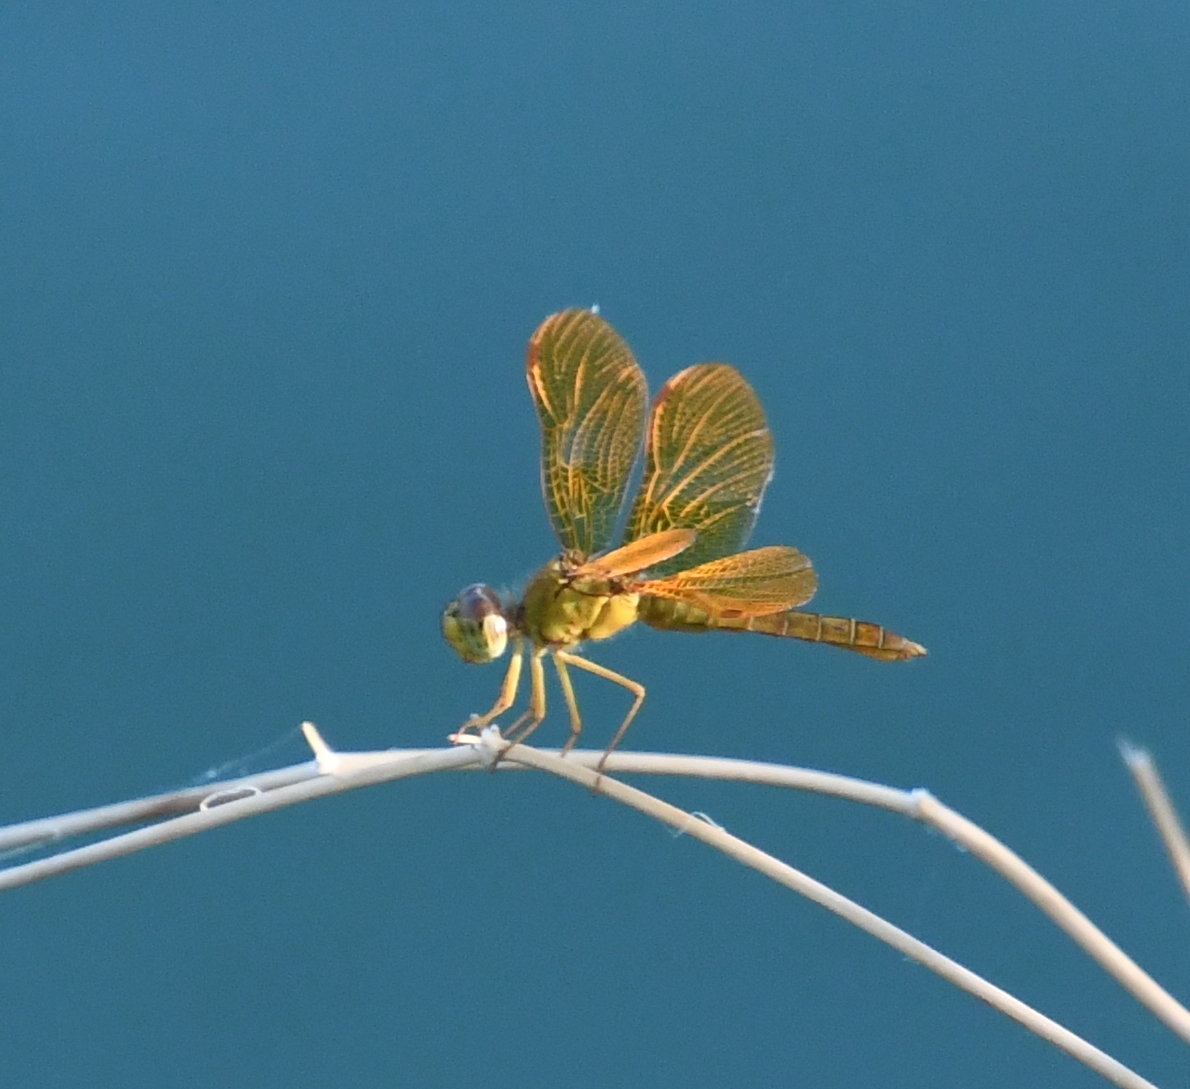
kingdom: Animalia
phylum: Arthropoda
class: Insecta
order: Odonata
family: Libellulidae
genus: Perithemis
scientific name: Perithemis intensa
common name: Mexican amberwing
